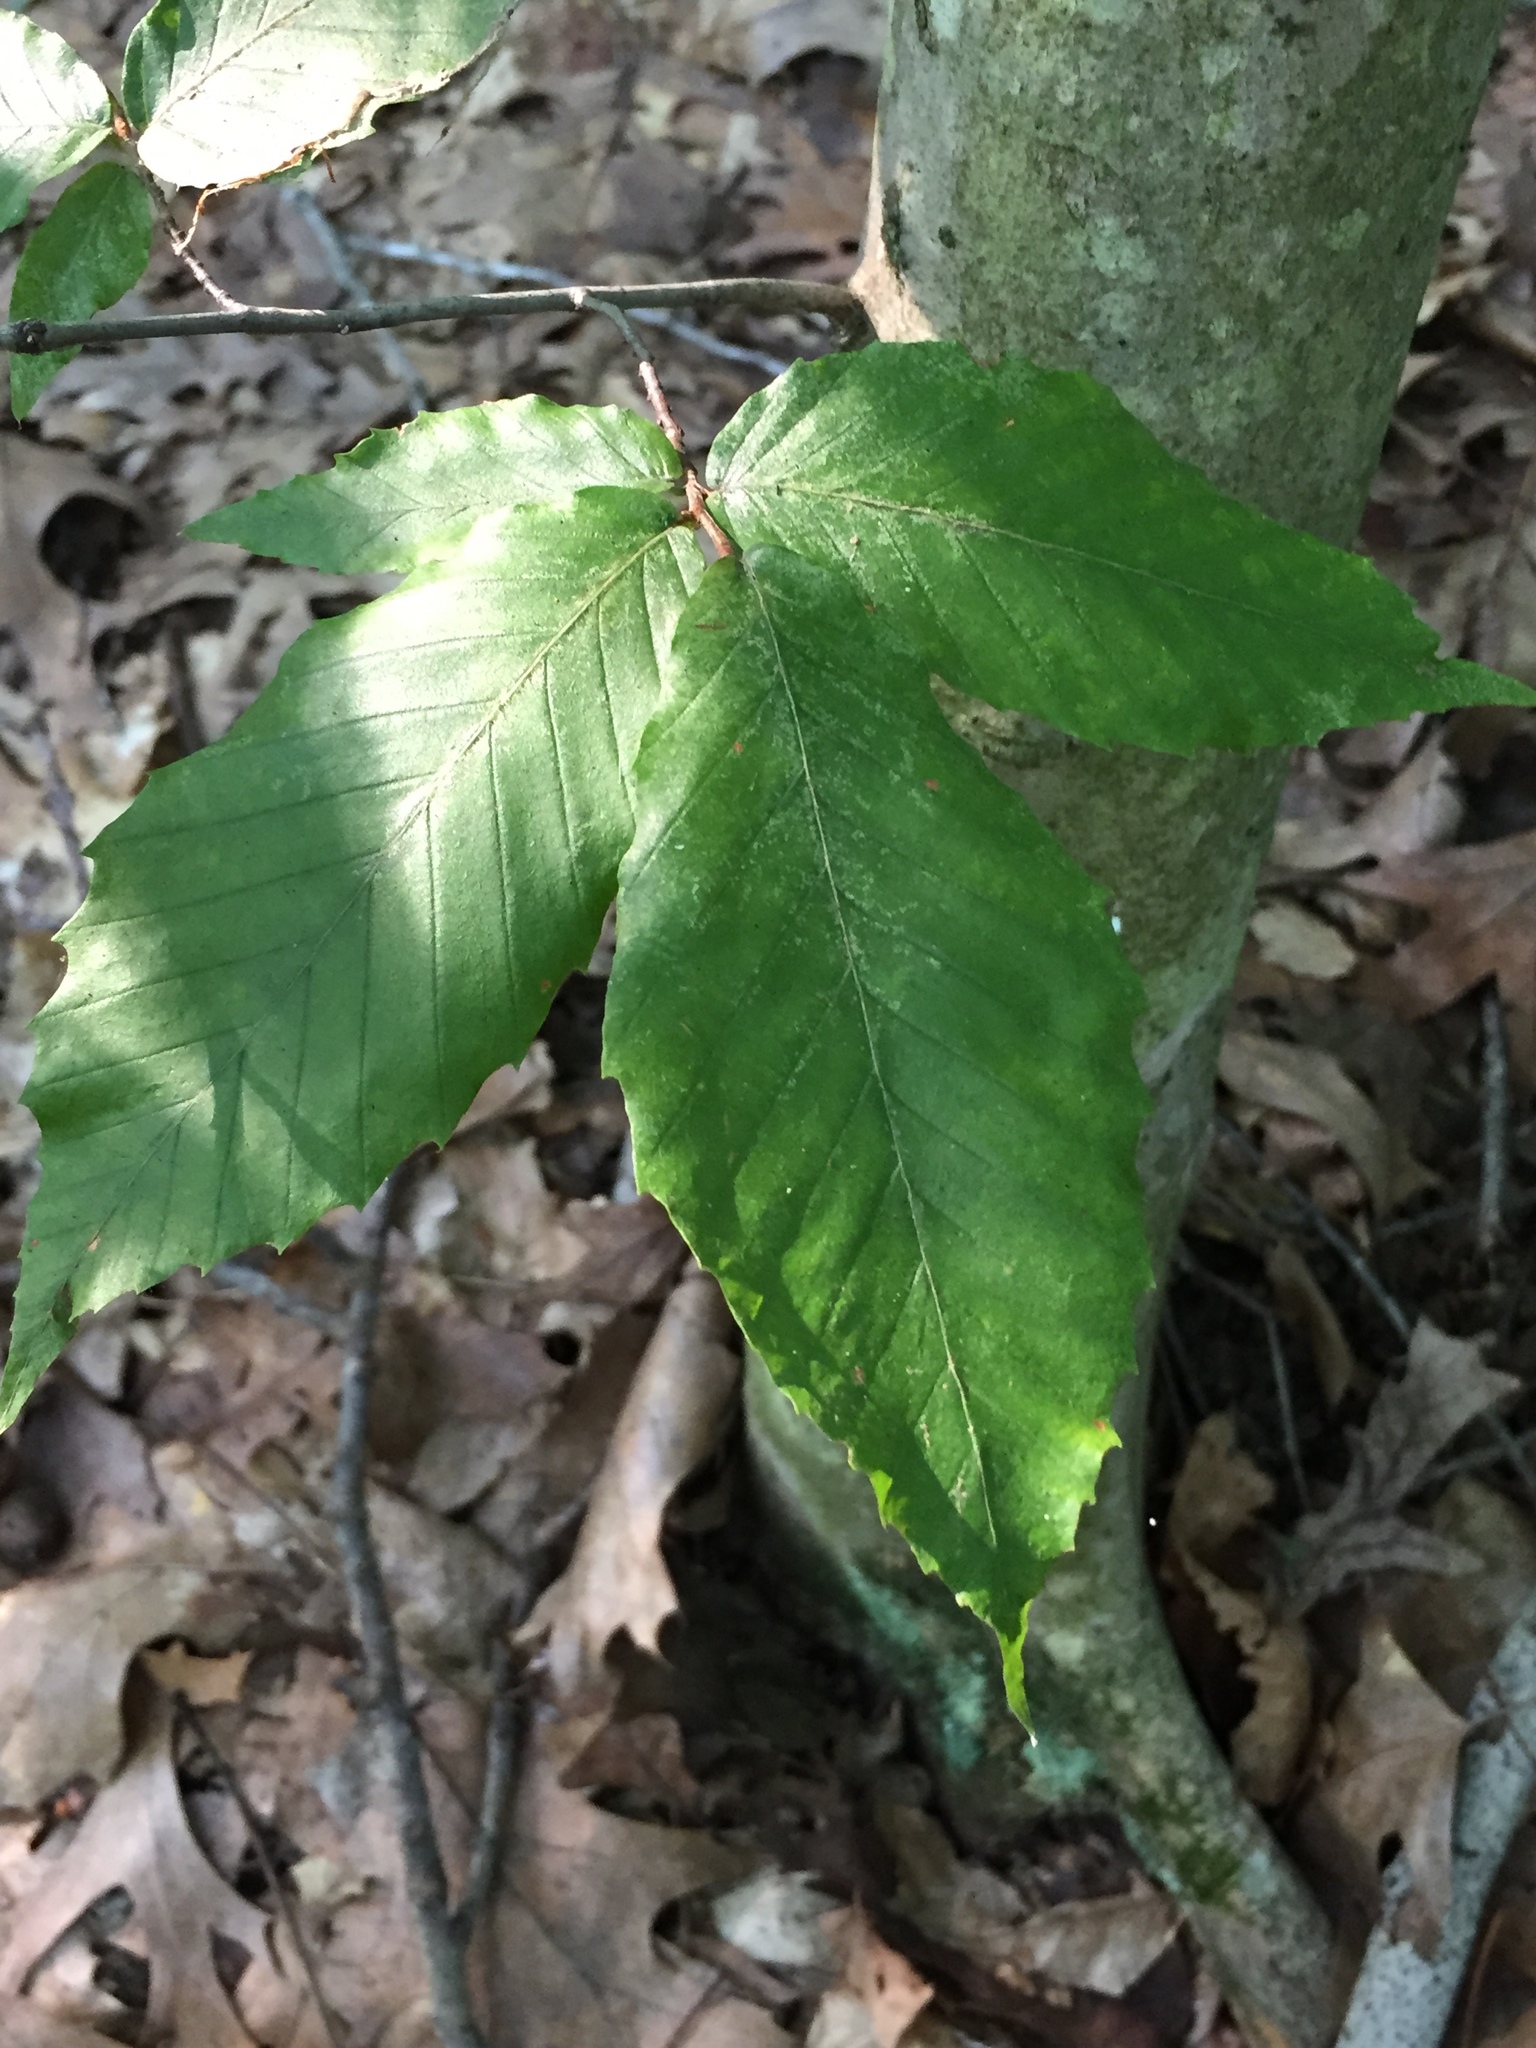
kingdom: Plantae
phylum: Tracheophyta
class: Magnoliopsida
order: Fagales
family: Fagaceae
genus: Fagus
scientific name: Fagus grandifolia
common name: American beech
